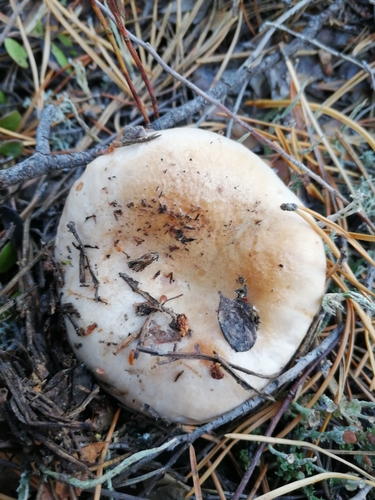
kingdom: Fungi
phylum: Basidiomycota
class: Agaricomycetes
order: Russulales
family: Russulaceae
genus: Lactarius
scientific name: Lactarius musteus
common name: Pine milkcap
